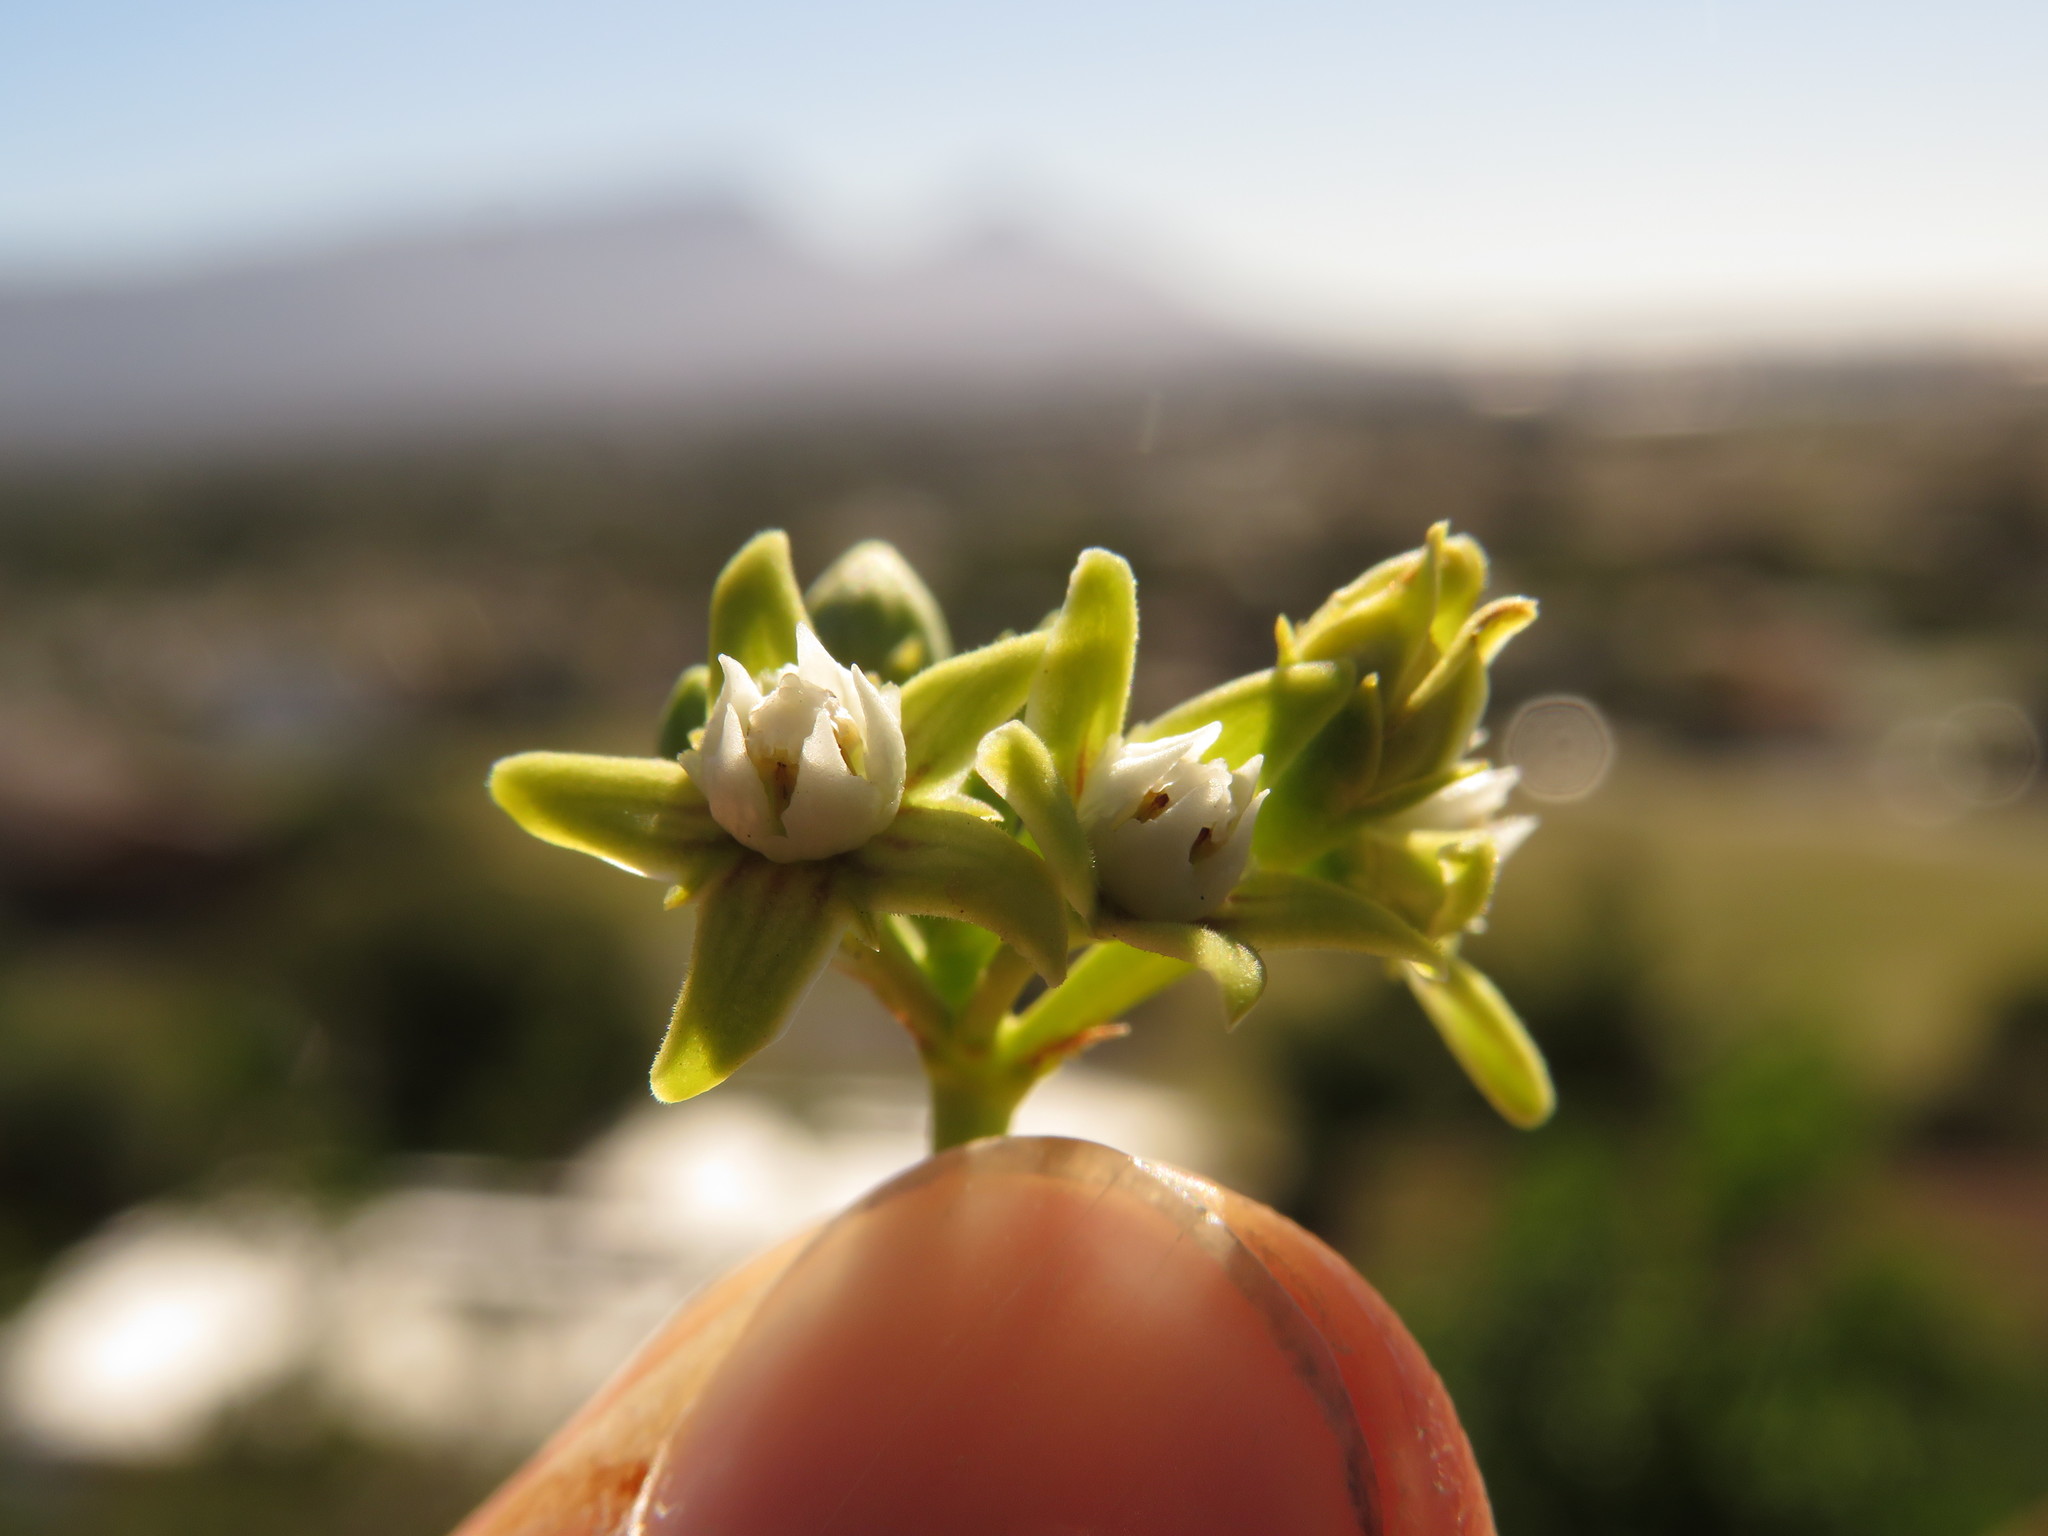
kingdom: Plantae
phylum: Tracheophyta
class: Magnoliopsida
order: Gentianales
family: Apocynaceae
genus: Cynanchum
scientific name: Cynanchum obtusifolium
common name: Monkey-rope
